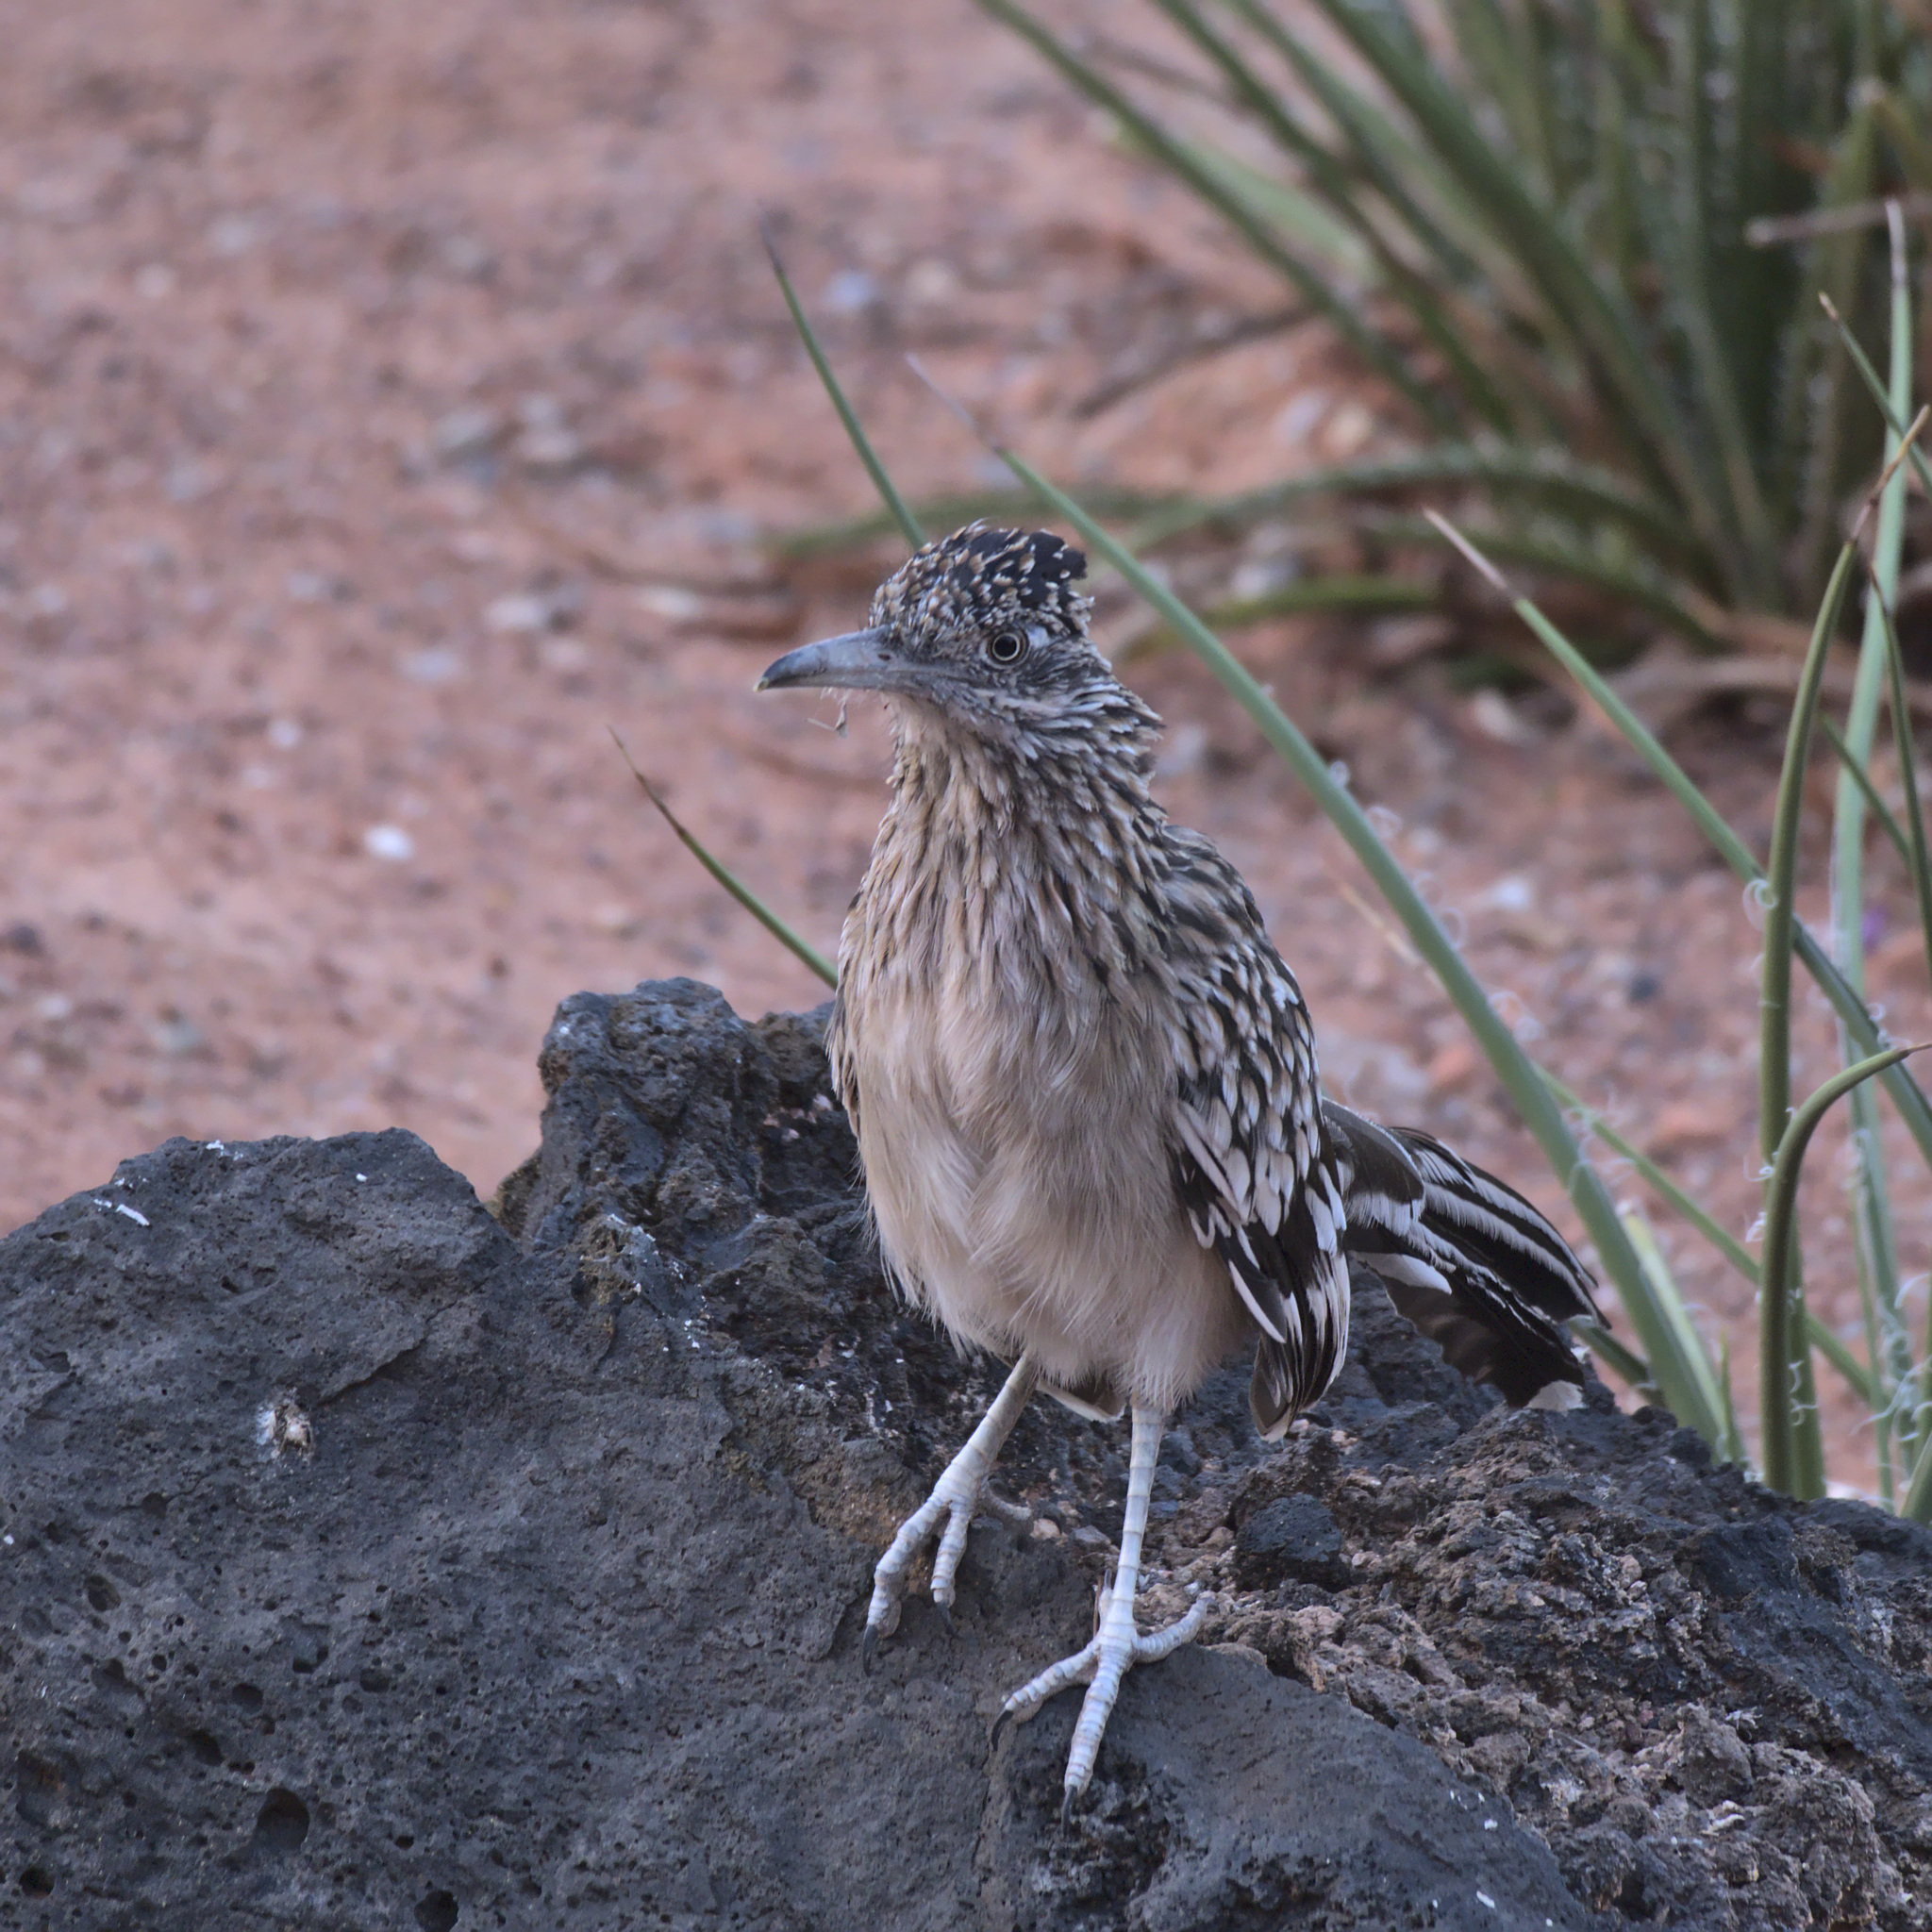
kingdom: Animalia
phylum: Chordata
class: Aves
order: Cuculiformes
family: Cuculidae
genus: Geococcyx
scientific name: Geococcyx californianus
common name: Greater roadrunner
